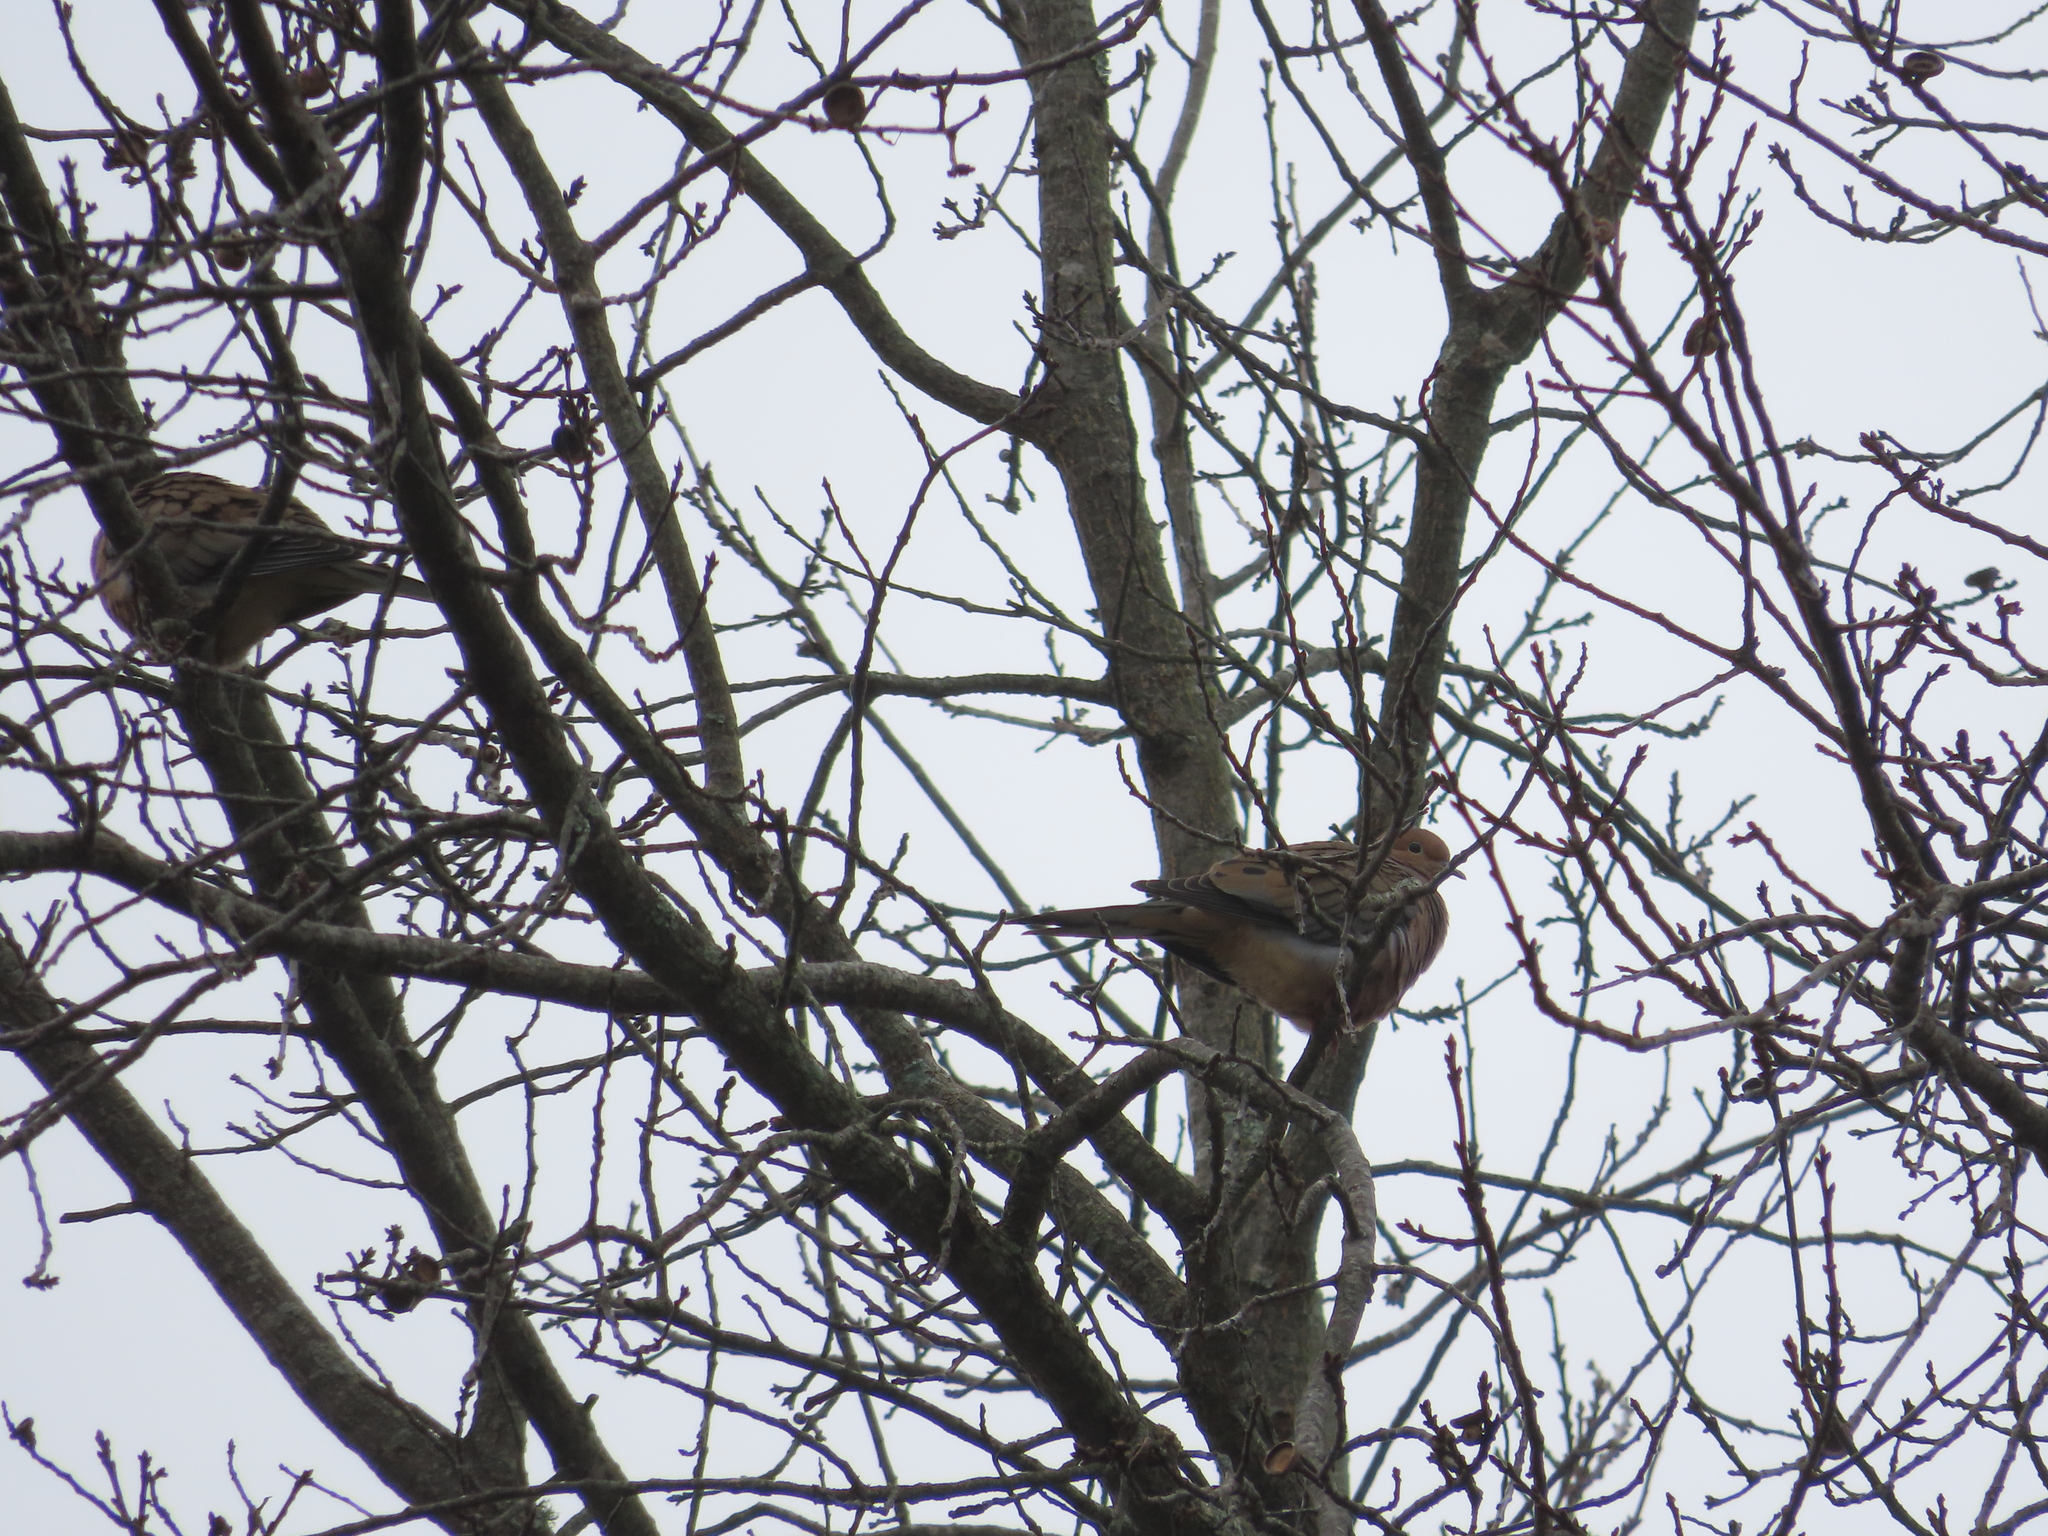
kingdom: Animalia
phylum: Chordata
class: Aves
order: Columbiformes
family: Columbidae
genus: Zenaida
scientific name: Zenaida macroura
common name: Mourning dove
